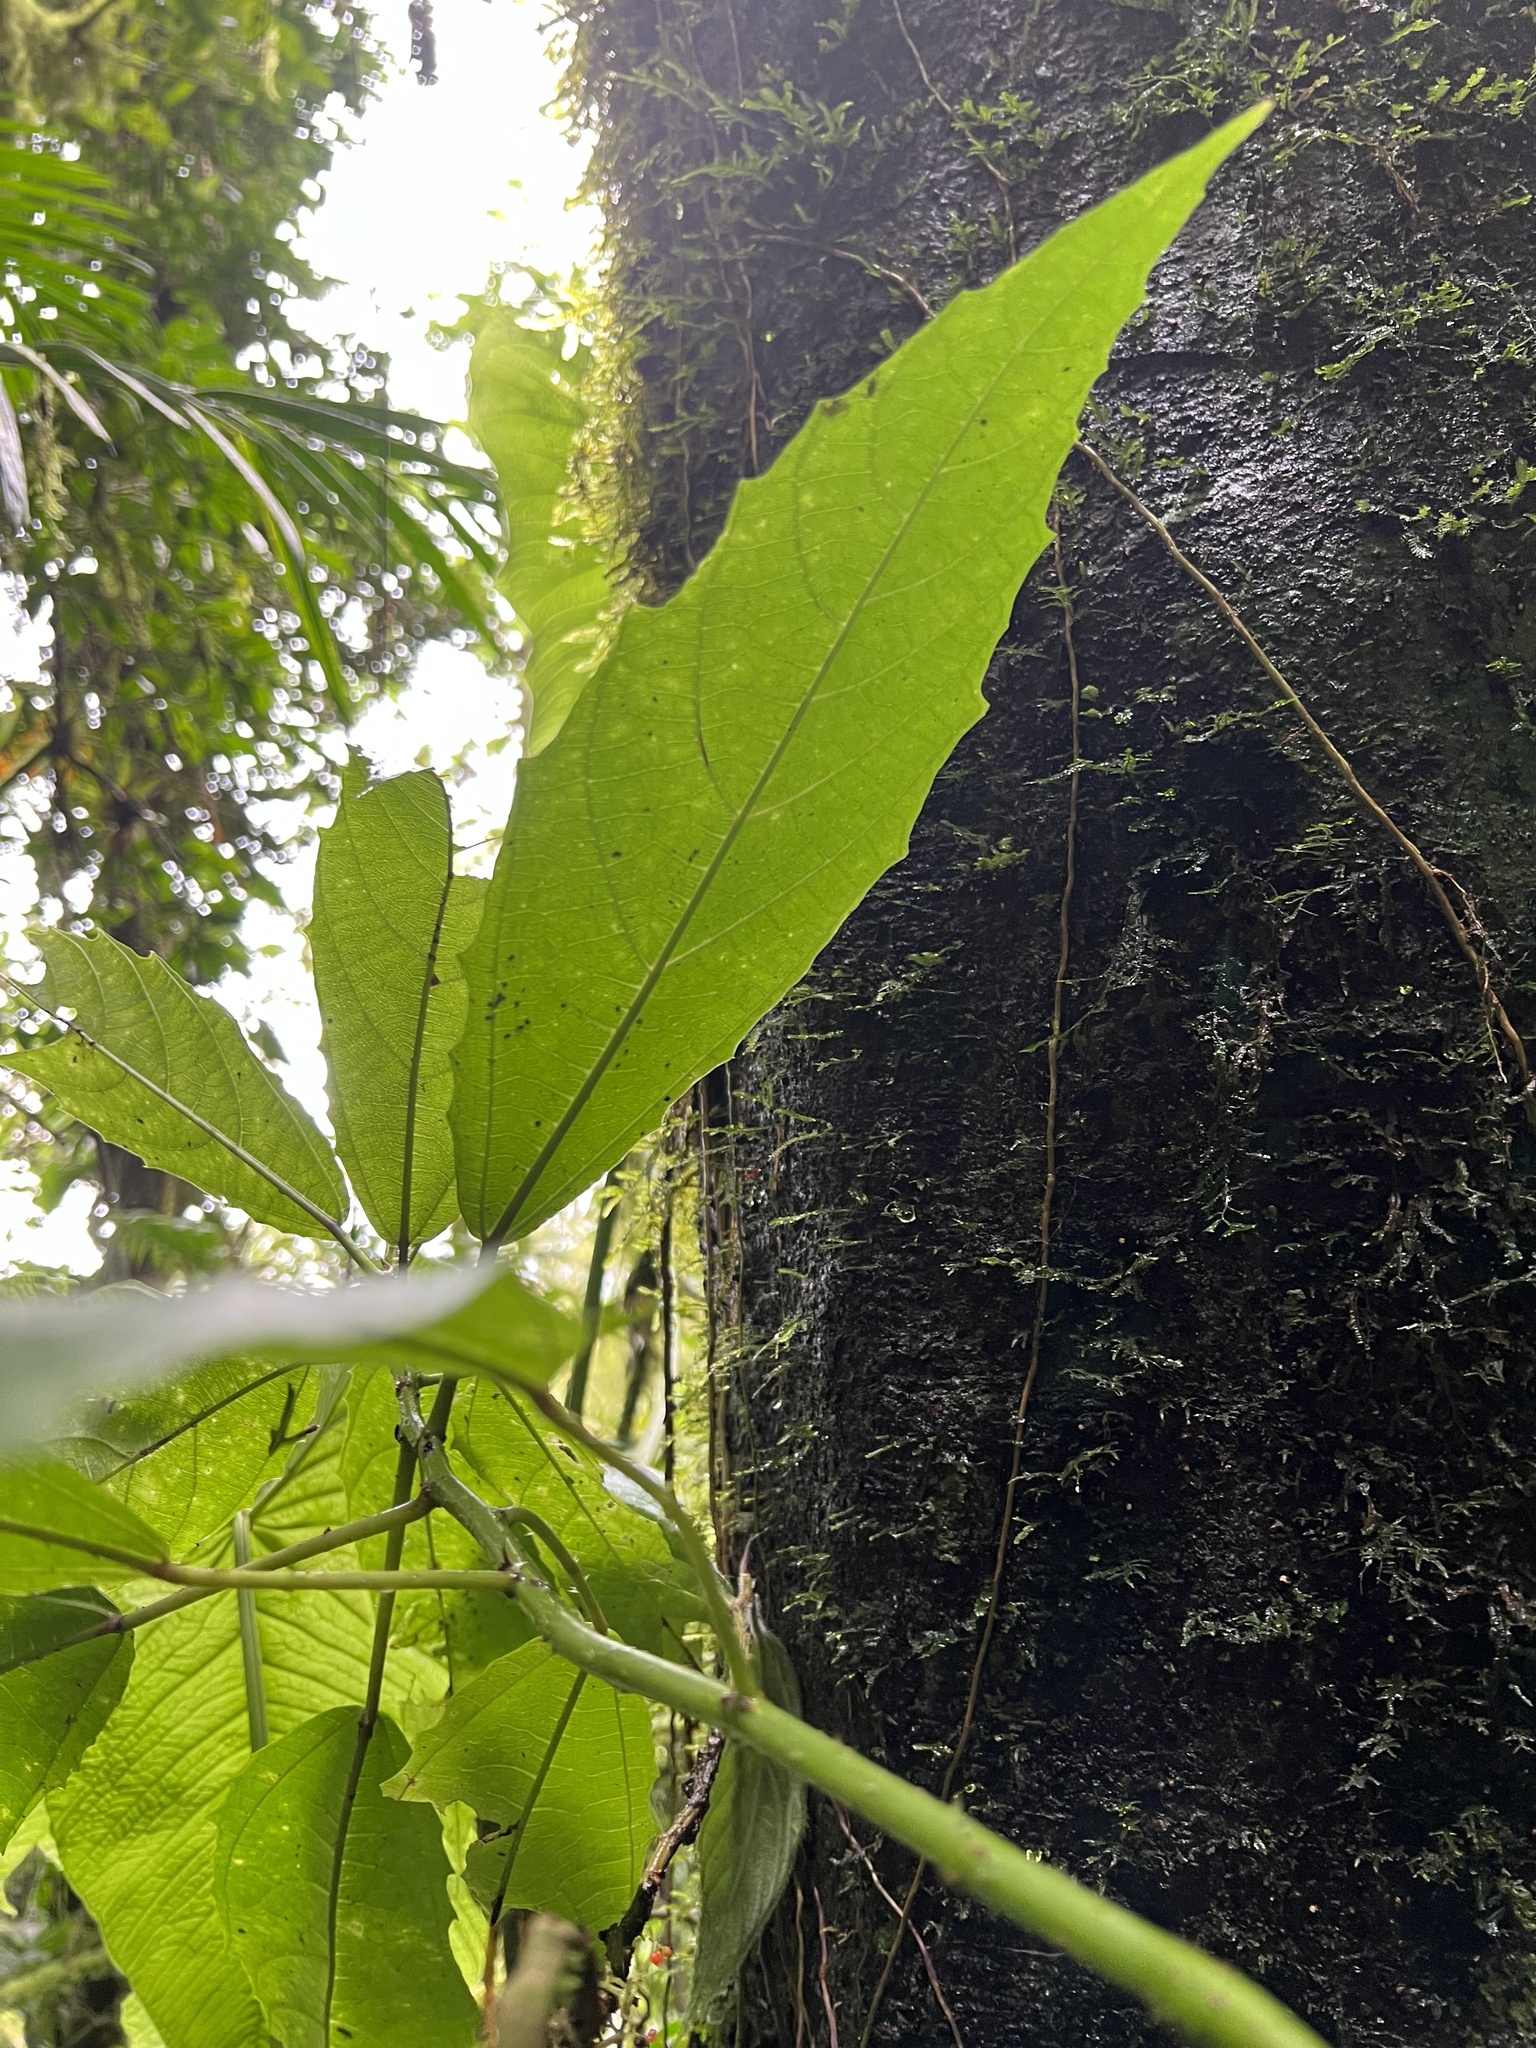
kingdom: Plantae
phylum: Tracheophyta
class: Magnoliopsida
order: Rosales
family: Urticaceae
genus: Urera
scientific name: Urera baccifera
